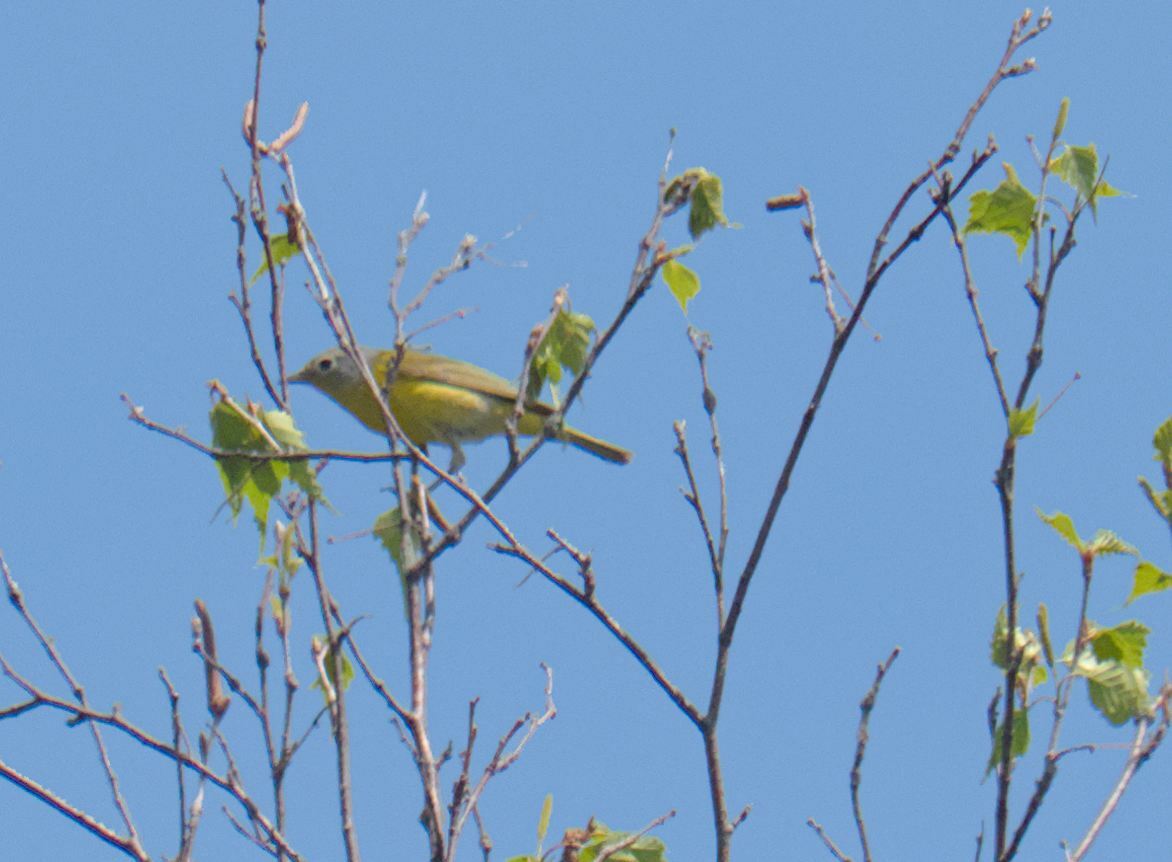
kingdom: Animalia
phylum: Chordata
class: Aves
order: Passeriformes
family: Parulidae
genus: Leiothlypis
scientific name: Leiothlypis ruficapilla
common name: Nashville warbler
